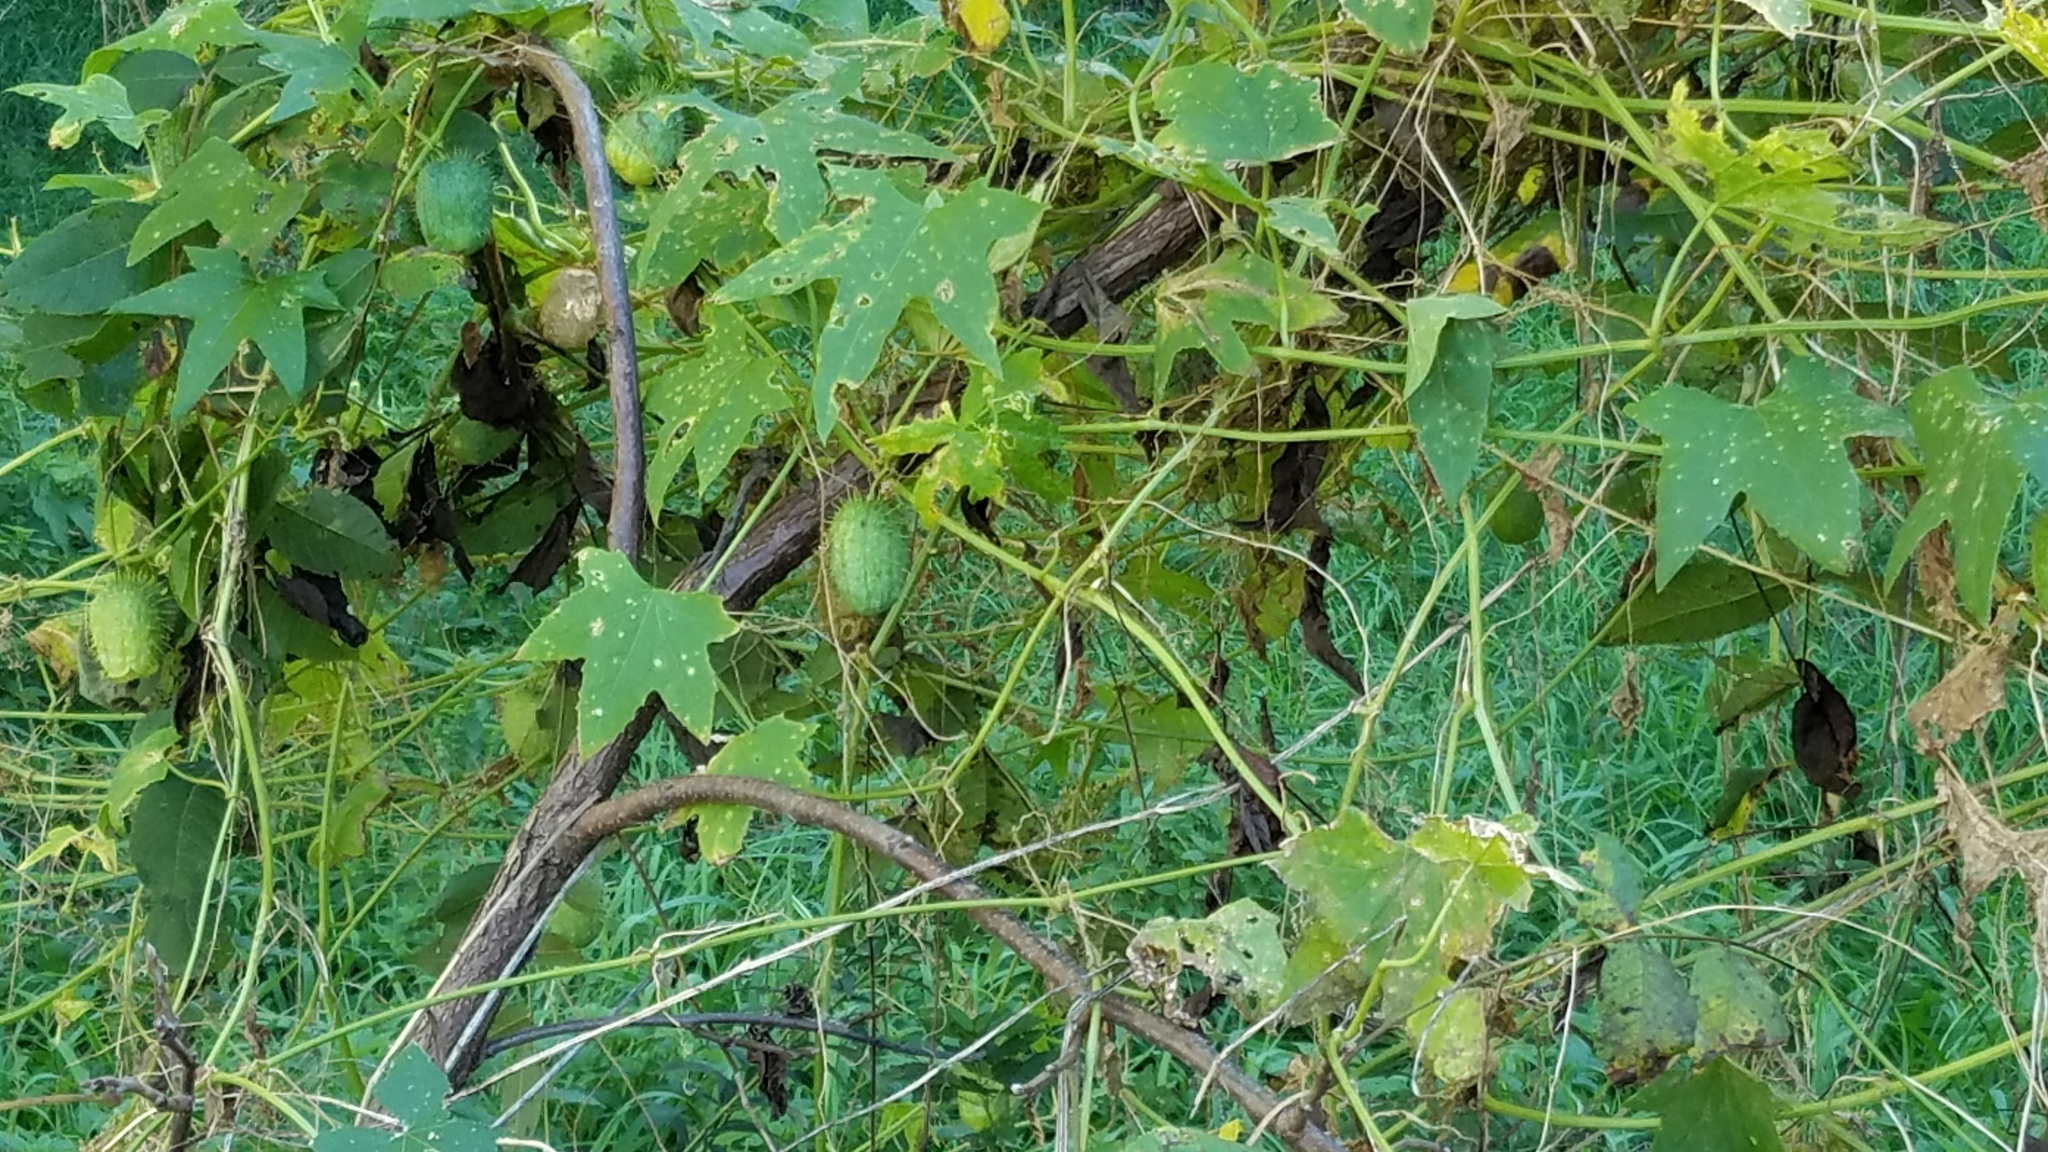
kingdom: Plantae
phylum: Tracheophyta
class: Magnoliopsida
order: Cucurbitales
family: Cucurbitaceae
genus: Echinocystis
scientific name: Echinocystis lobata
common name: Wild cucumber
